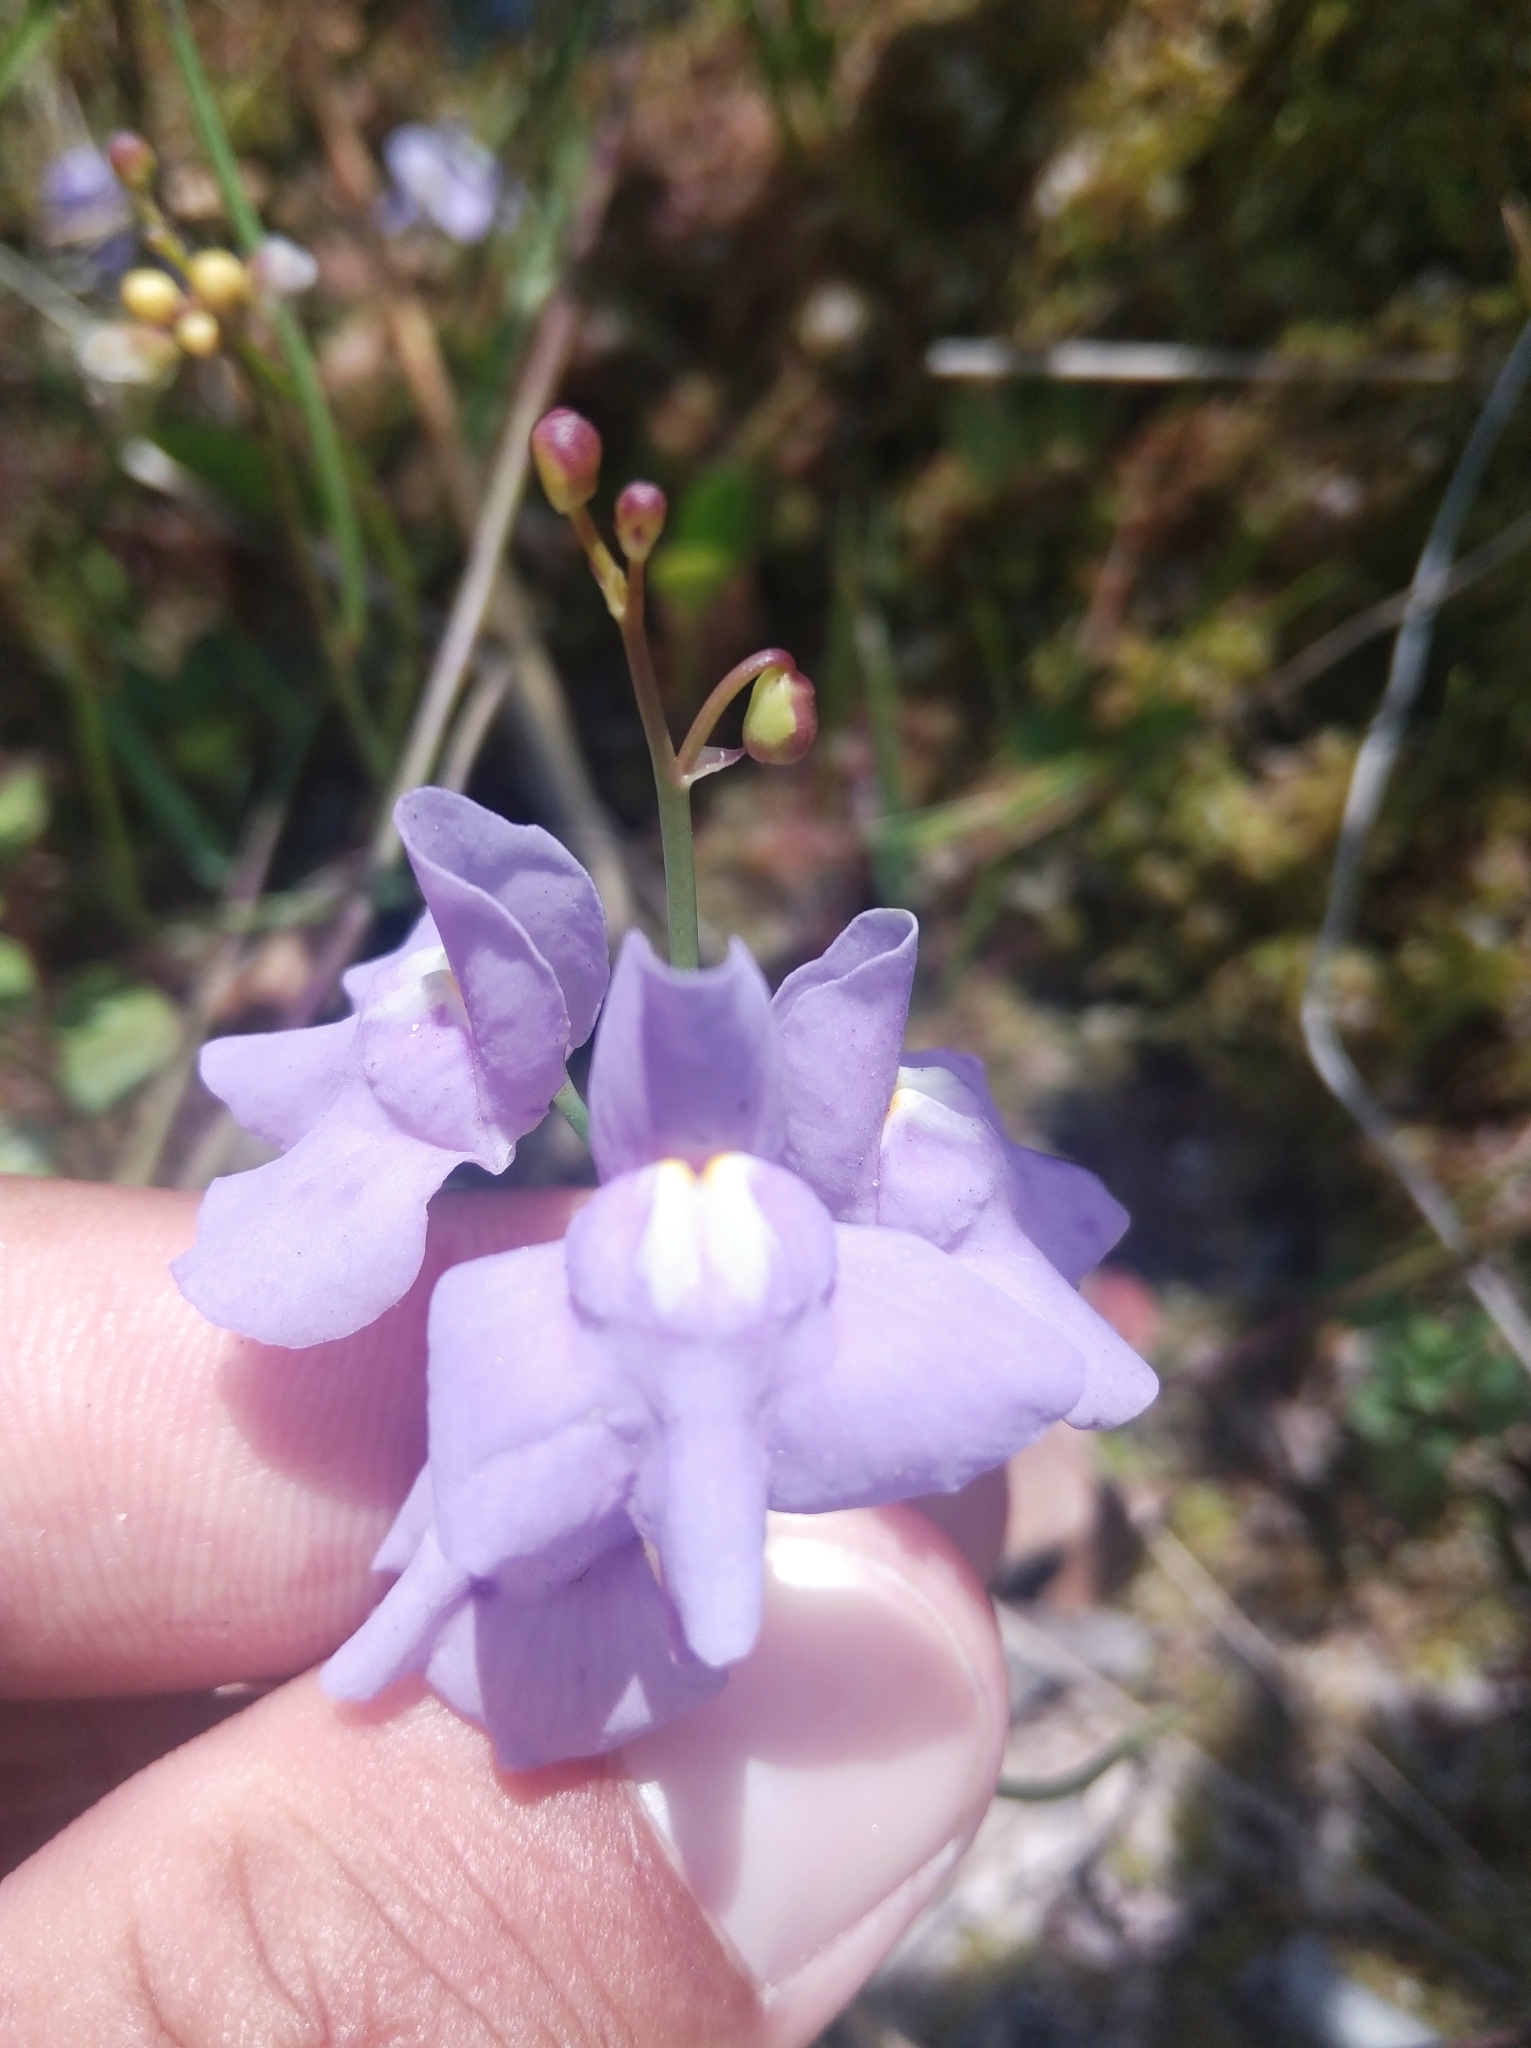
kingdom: Plantae
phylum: Tracheophyta
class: Magnoliopsida
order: Lamiales
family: Lentibulariaceae
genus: Utricularia
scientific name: Utricularia tricolor
